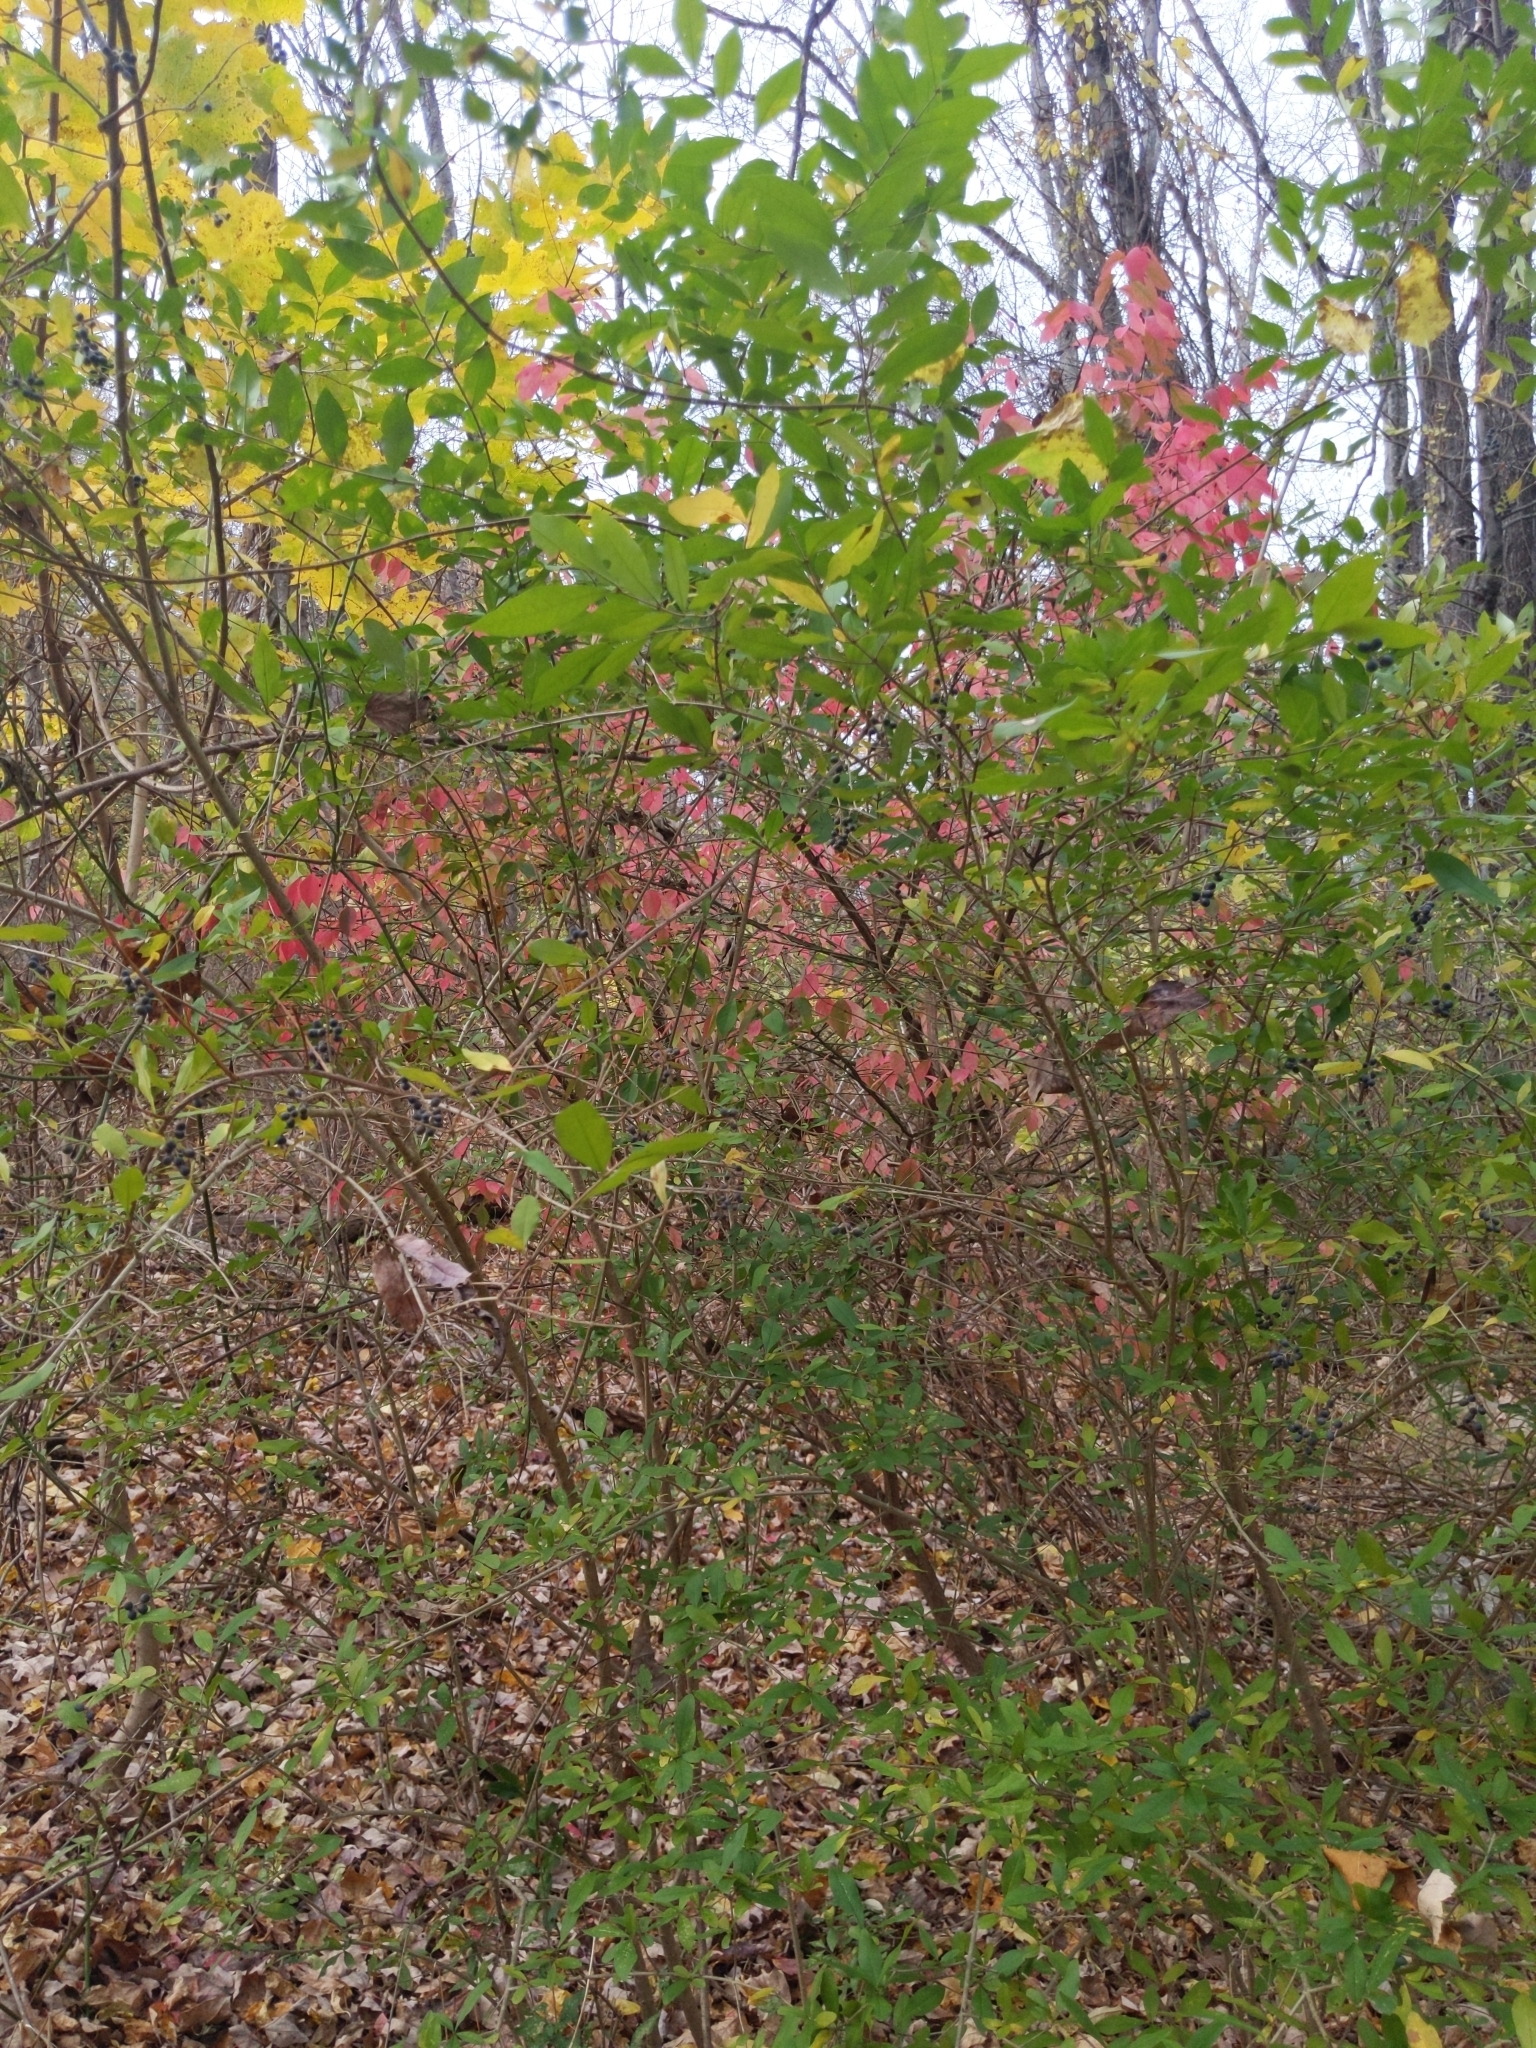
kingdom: Plantae
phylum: Tracheophyta
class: Magnoliopsida
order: Lamiales
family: Oleaceae
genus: Ligustrum
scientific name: Ligustrum obtusifolium
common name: Border privet
